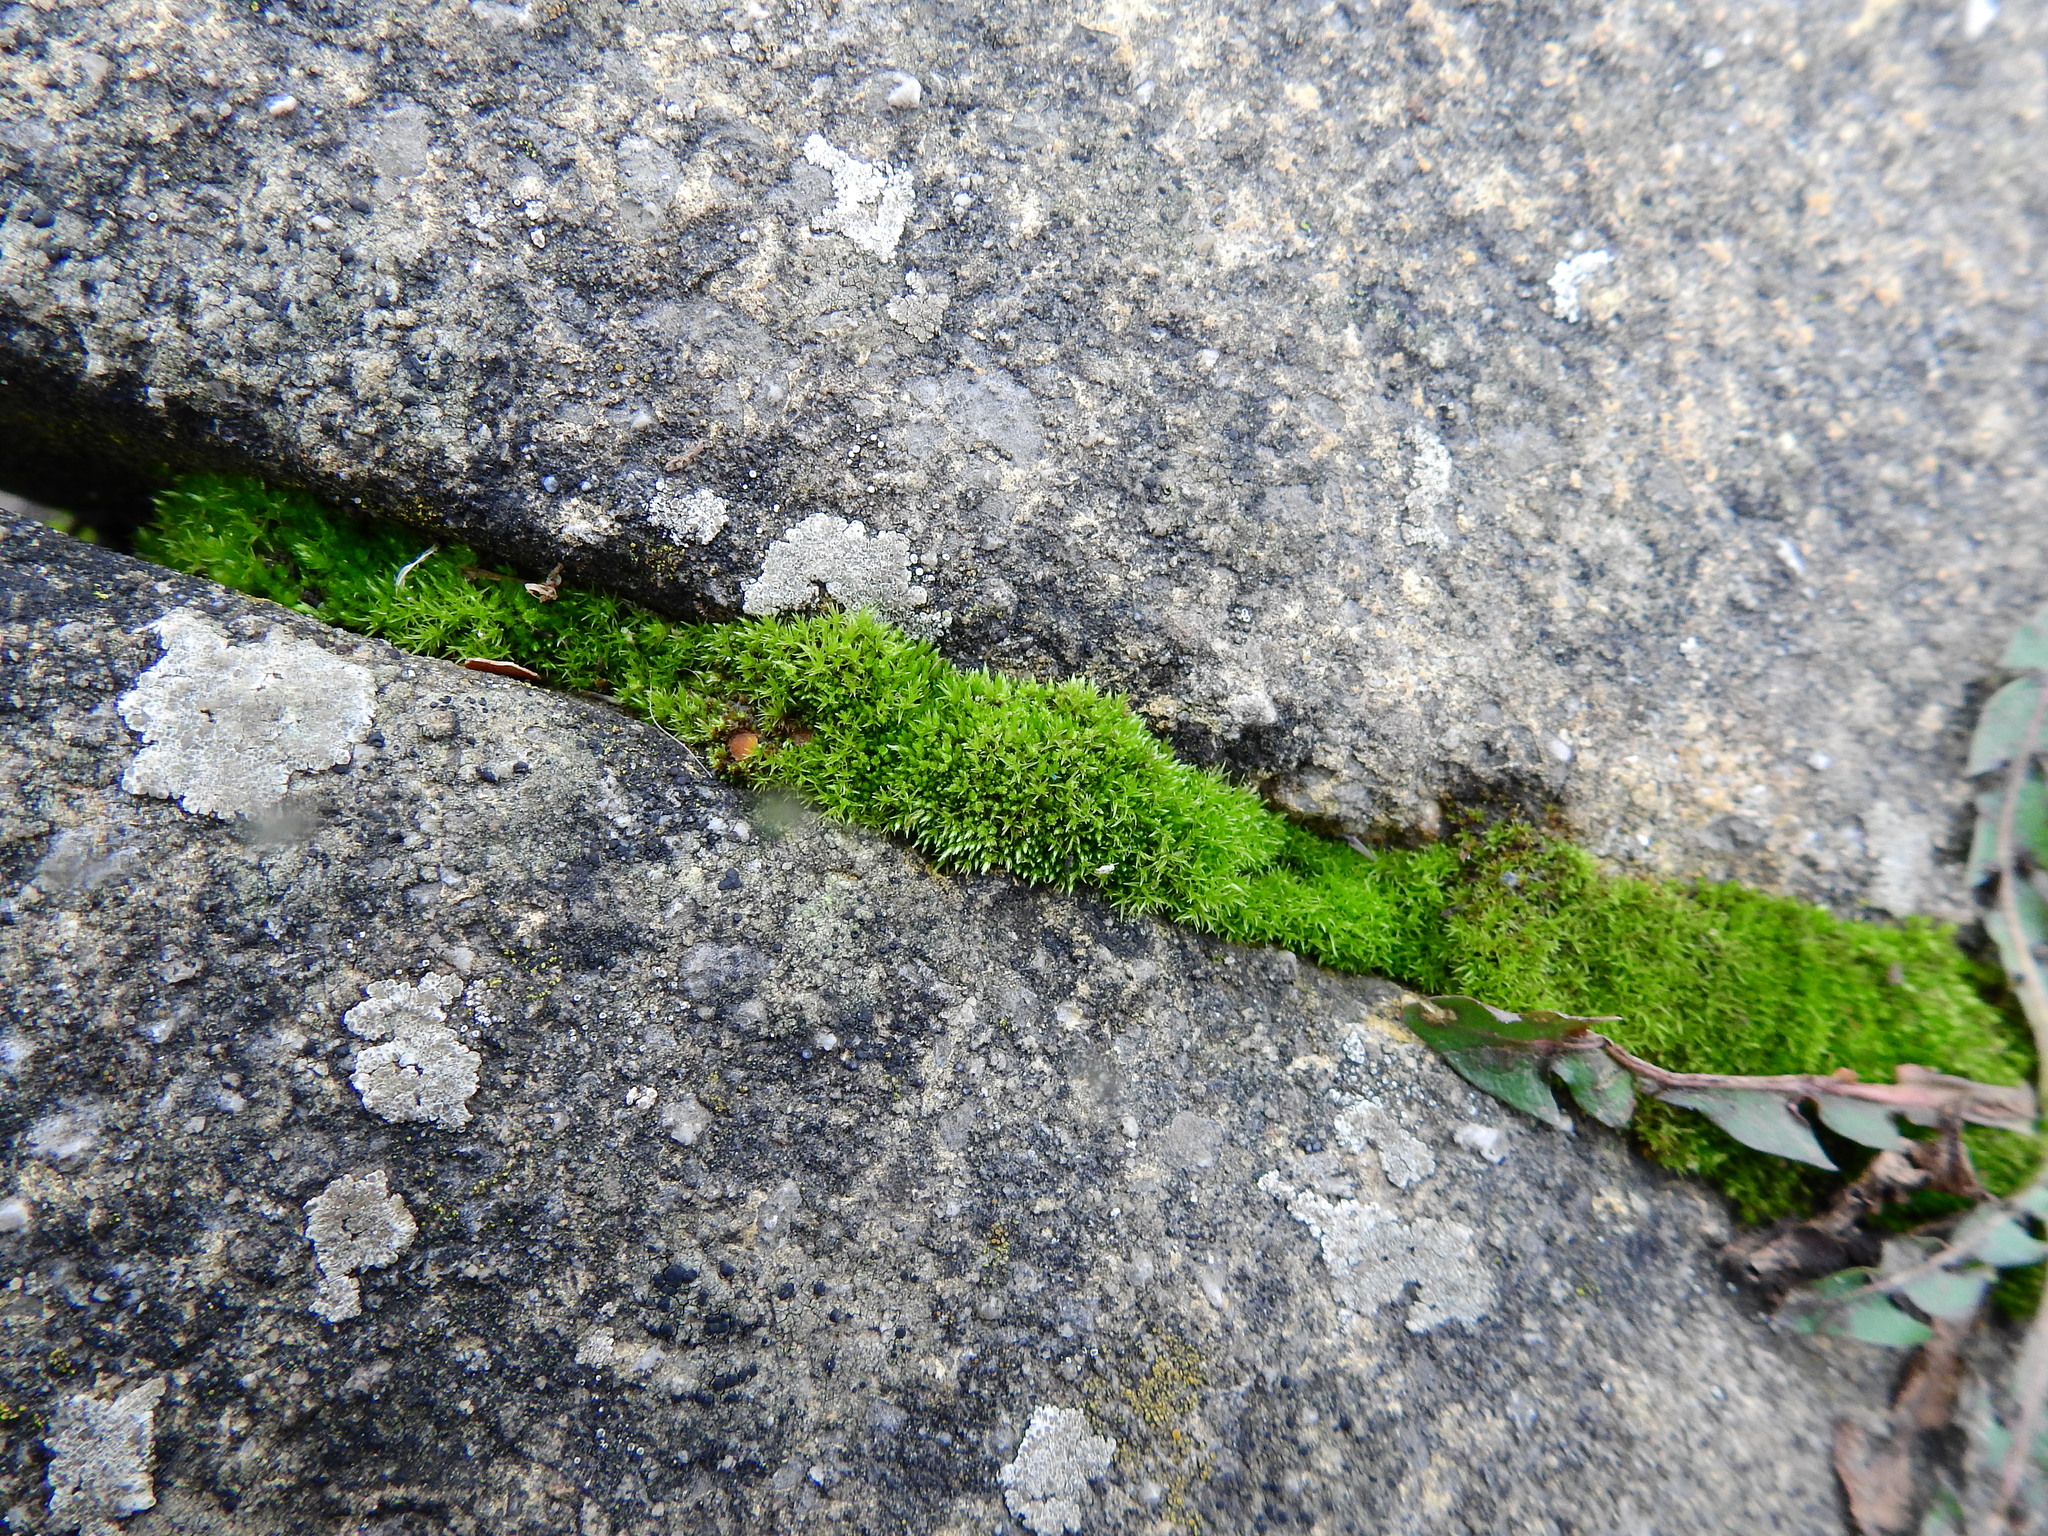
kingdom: Plantae
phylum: Bryophyta
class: Bryopsida
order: Bryales
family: Bryaceae
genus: Bryum
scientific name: Bryum argenteum
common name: Silver-moss
